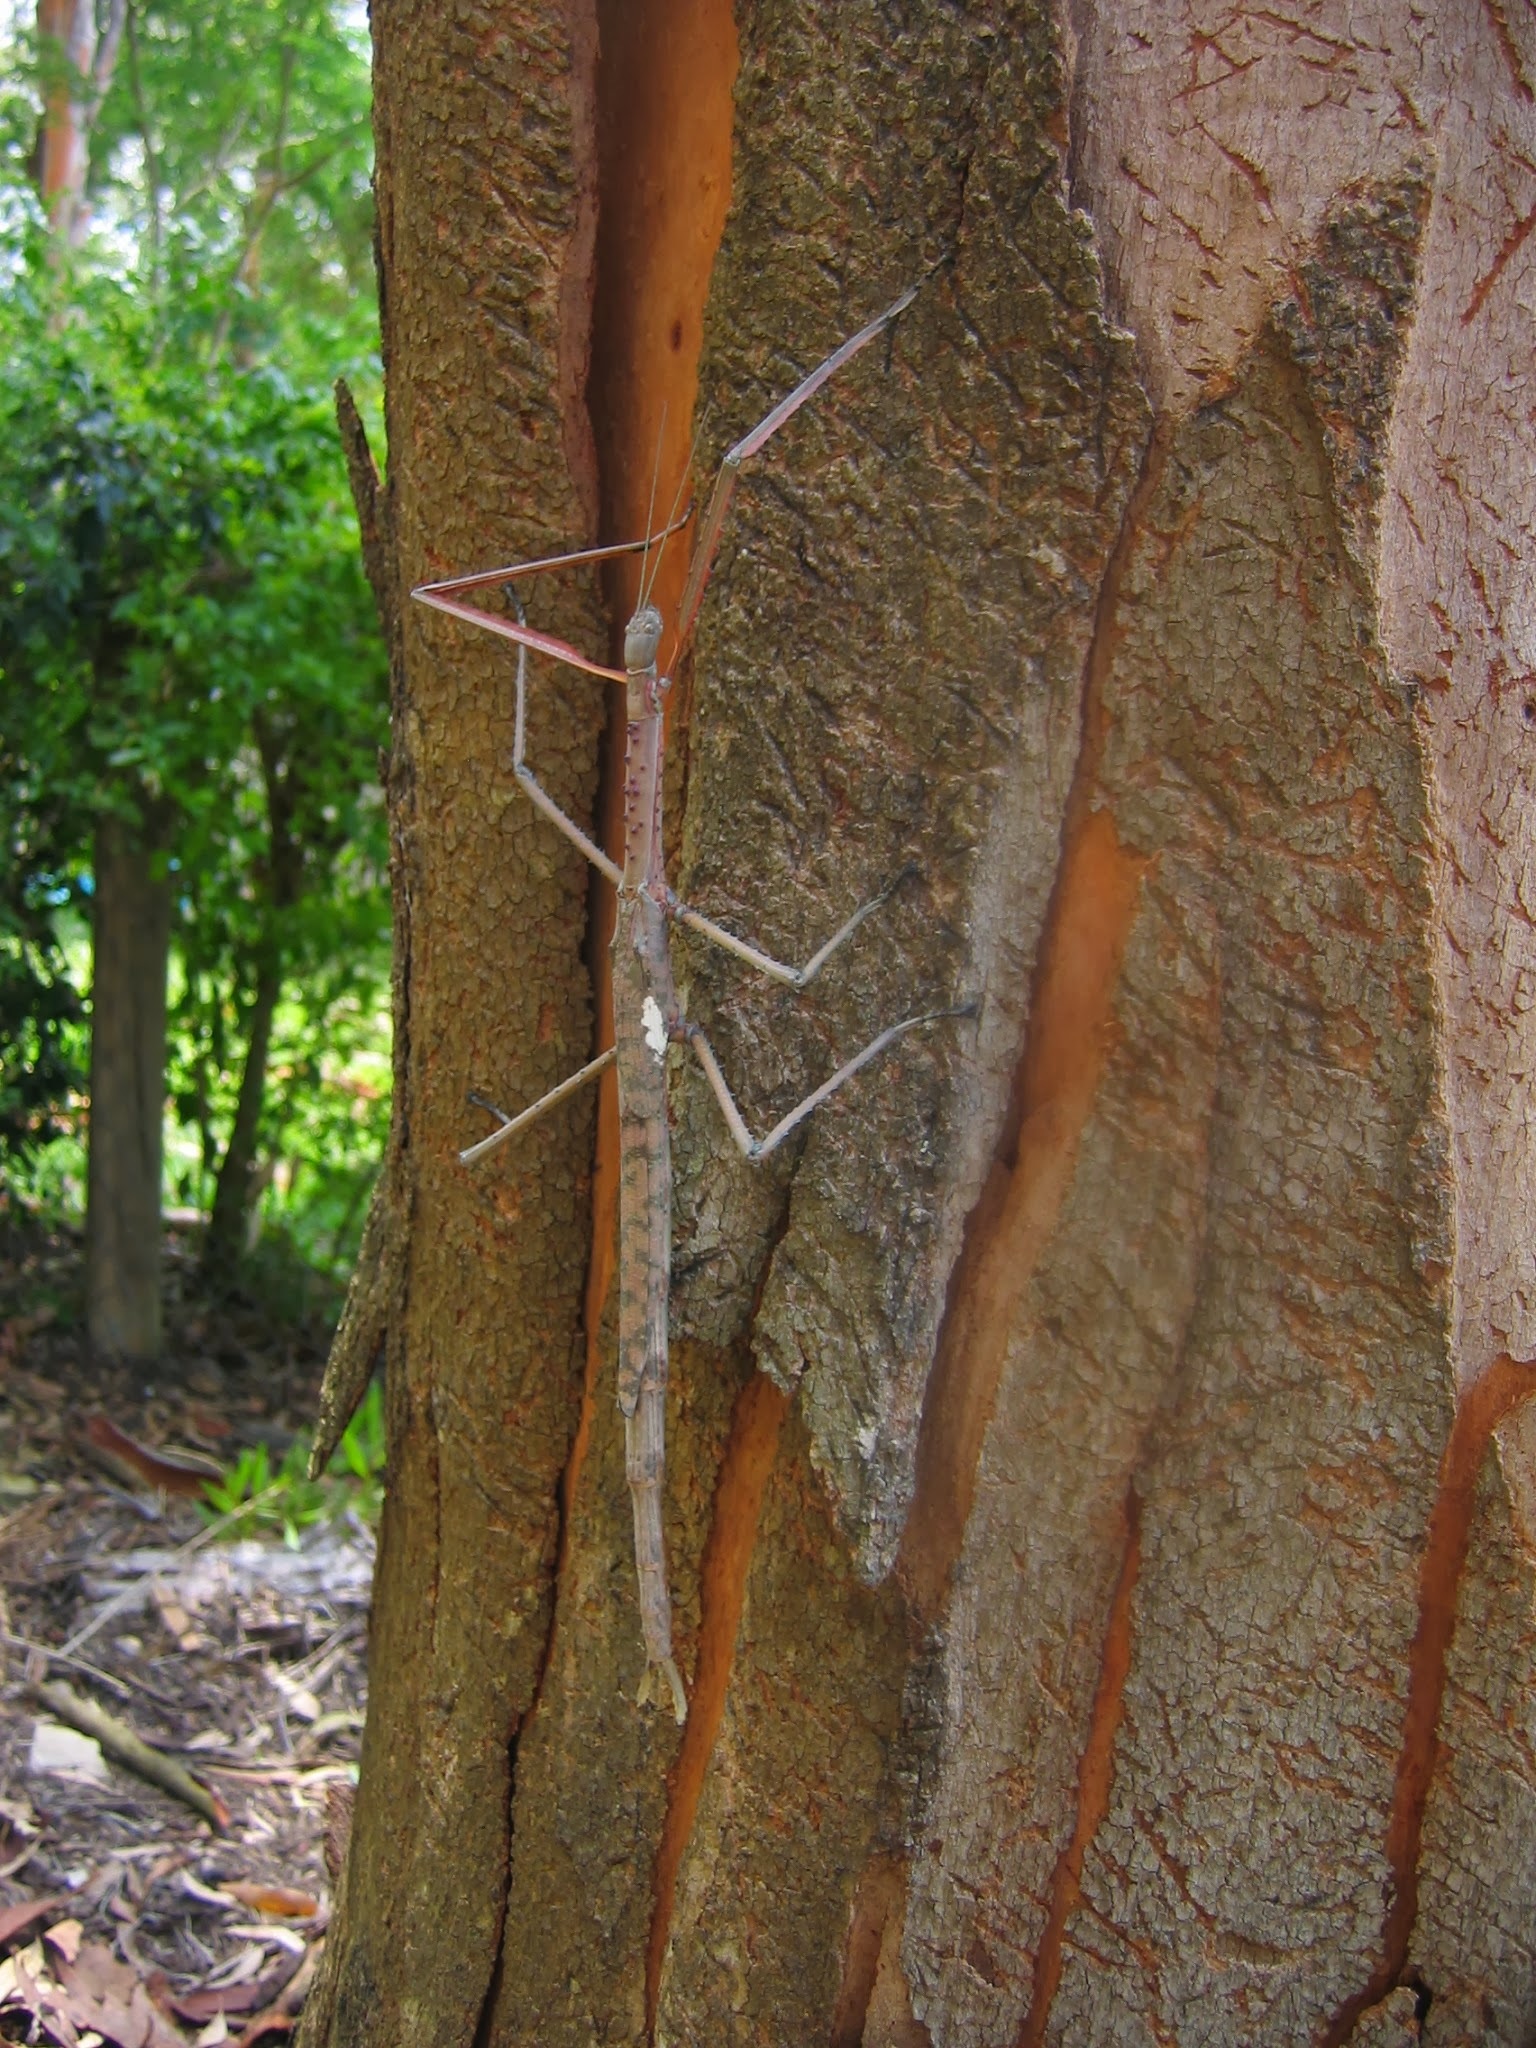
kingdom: Animalia
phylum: Arthropoda
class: Insecta
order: Phasmida
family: Phasmatidae
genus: Acrophylla
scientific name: Acrophylla titan
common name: Titan stick insect
